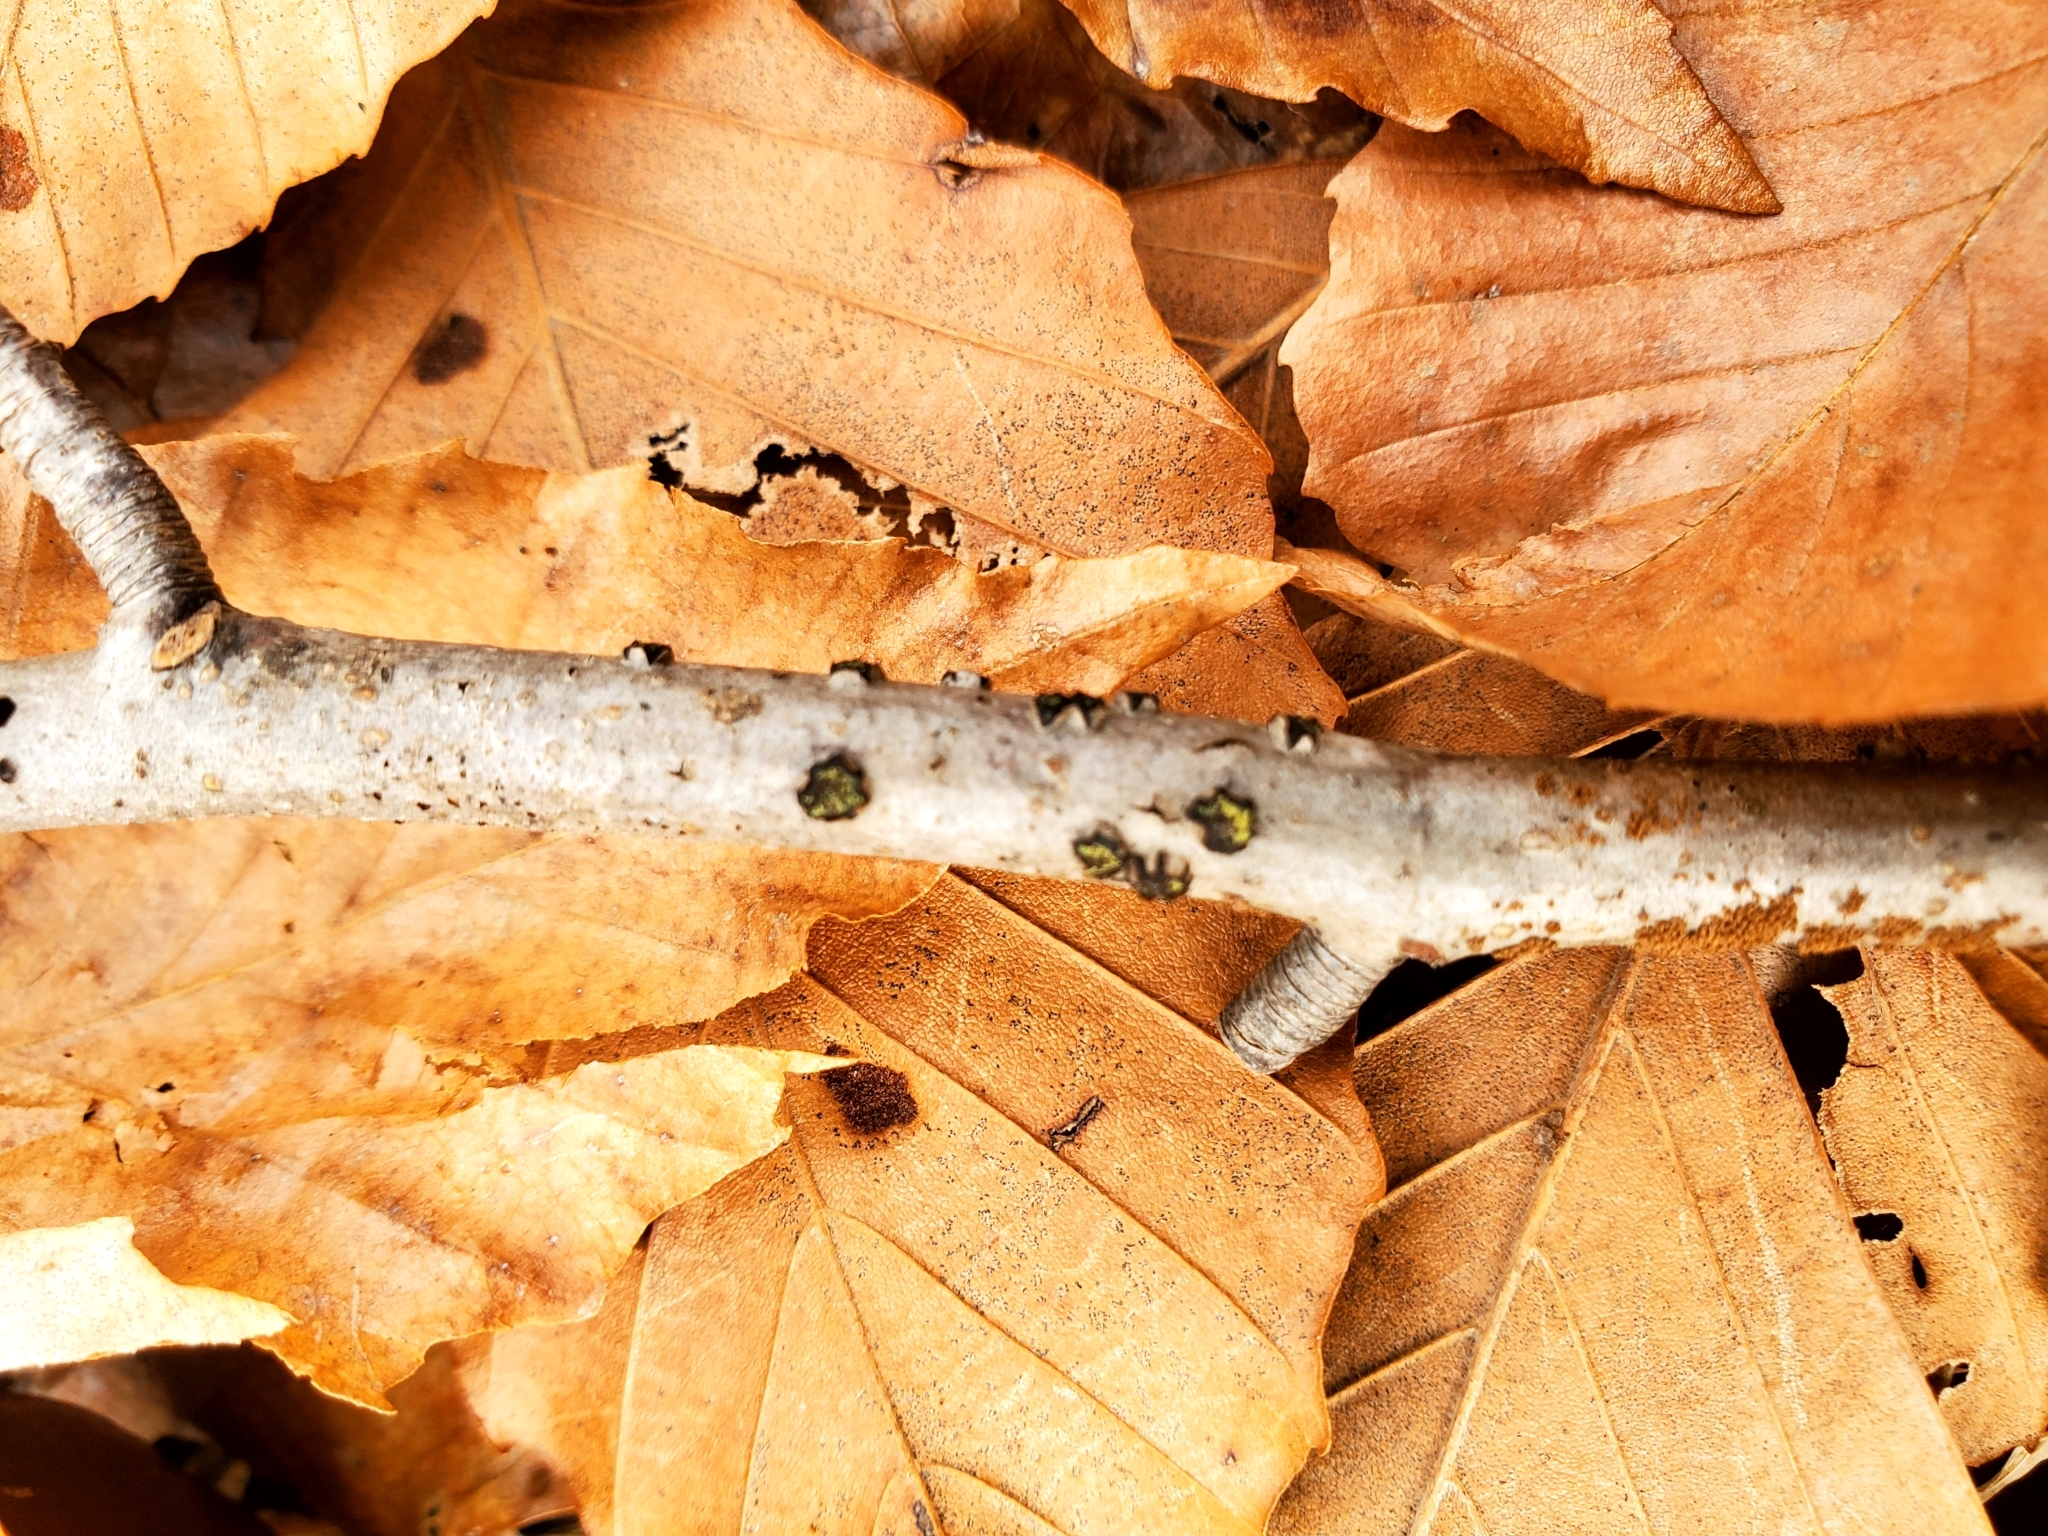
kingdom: Fungi
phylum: Ascomycota
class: Sordariomycetes
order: Xylariales
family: Diatrypaceae
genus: Diatrype
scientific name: Diatrype virescens
